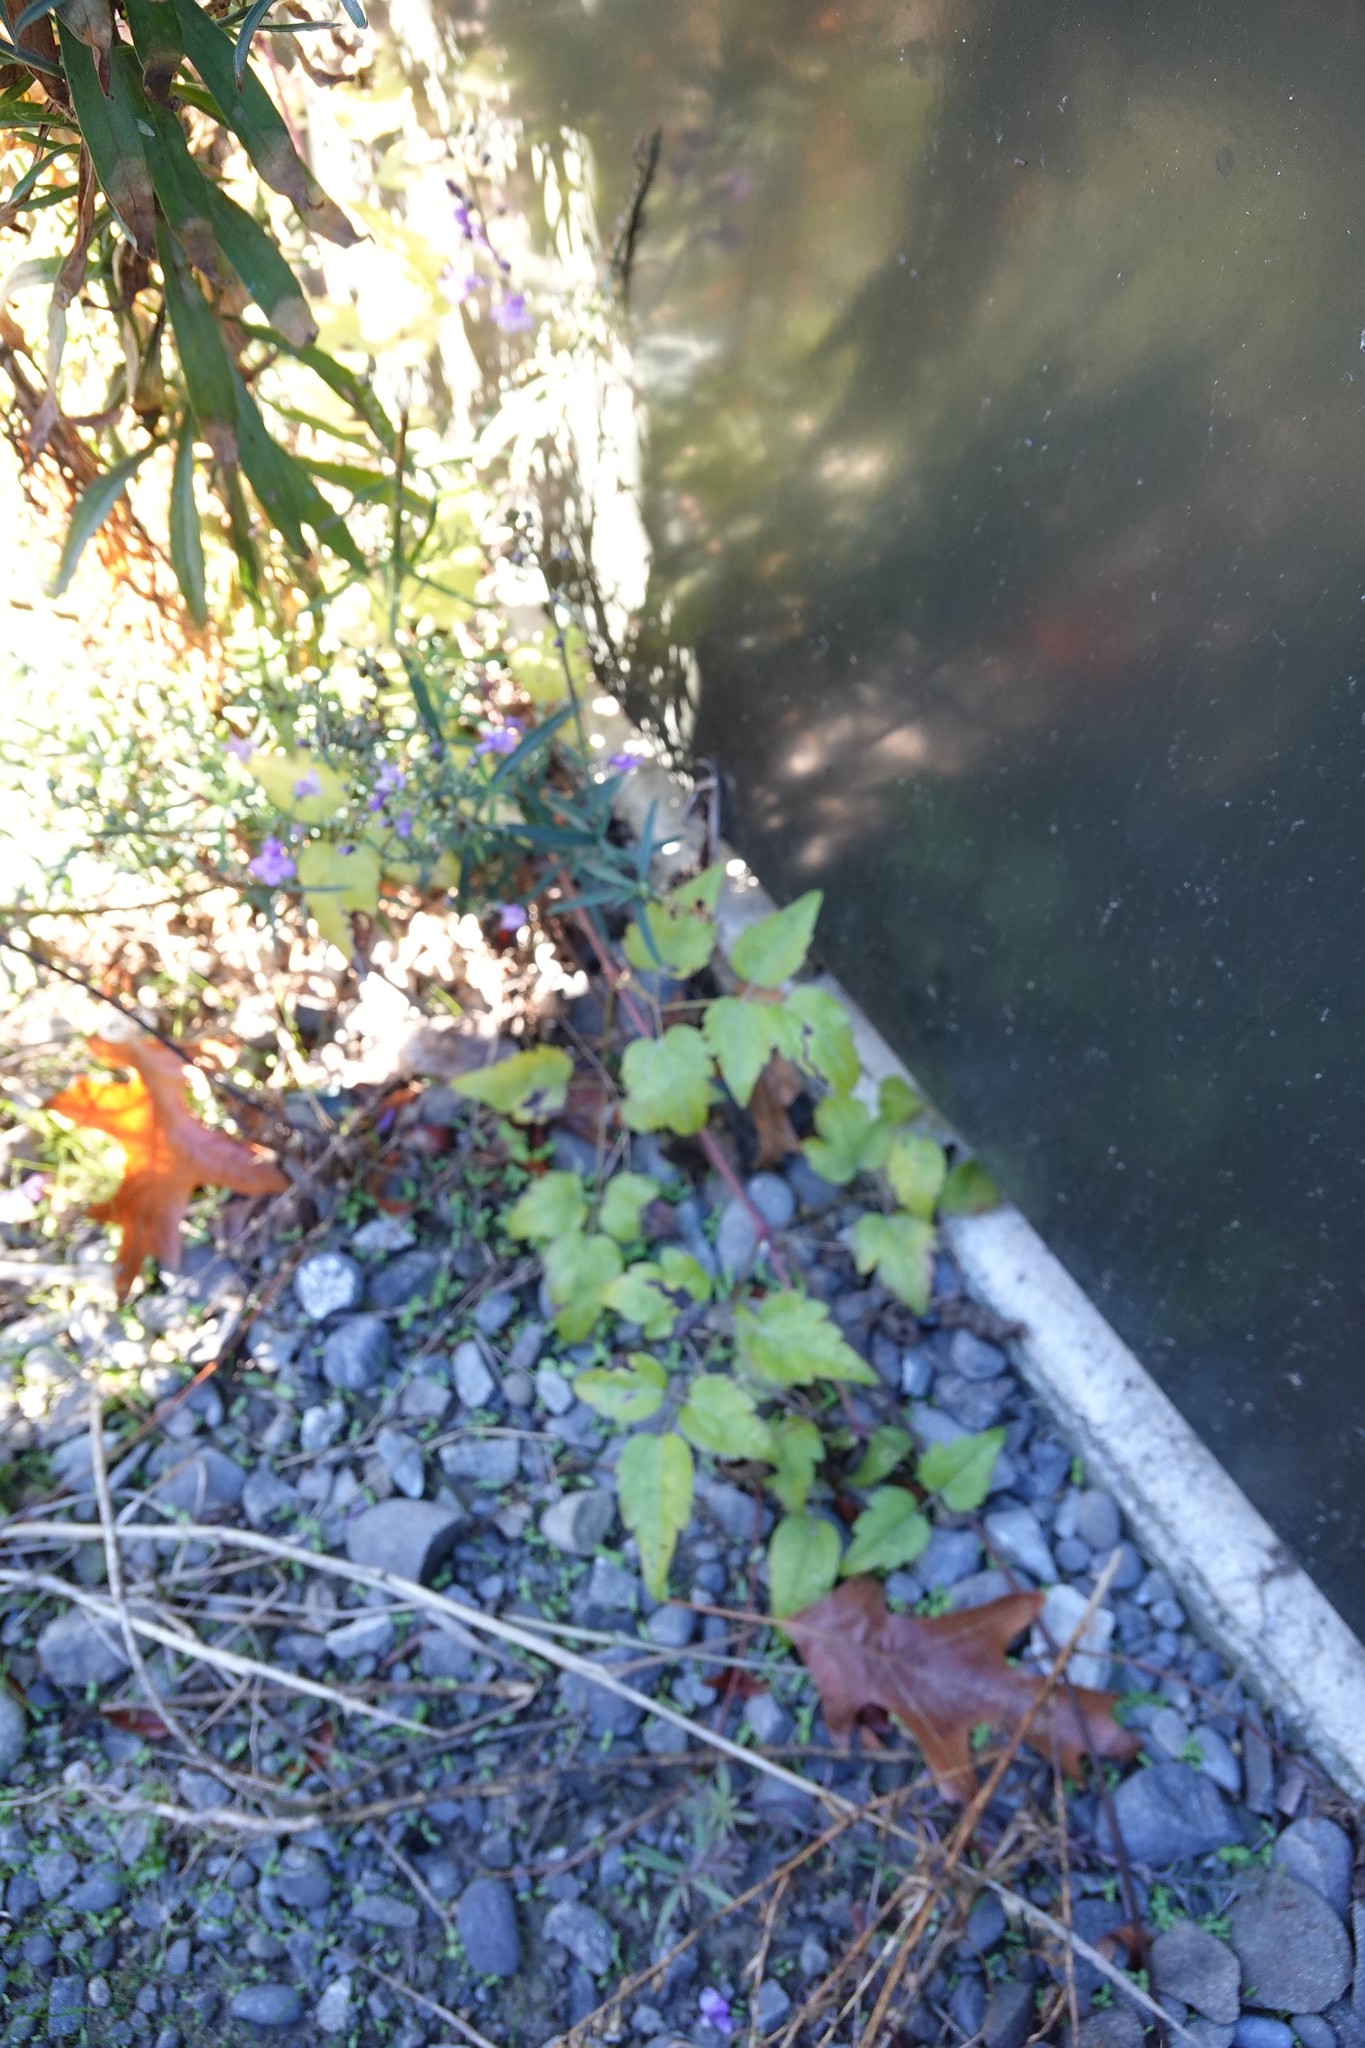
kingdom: Plantae
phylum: Tracheophyta
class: Magnoliopsida
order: Ranunculales
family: Ranunculaceae
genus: Clematis
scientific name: Clematis vitalba
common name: Evergreen clematis
